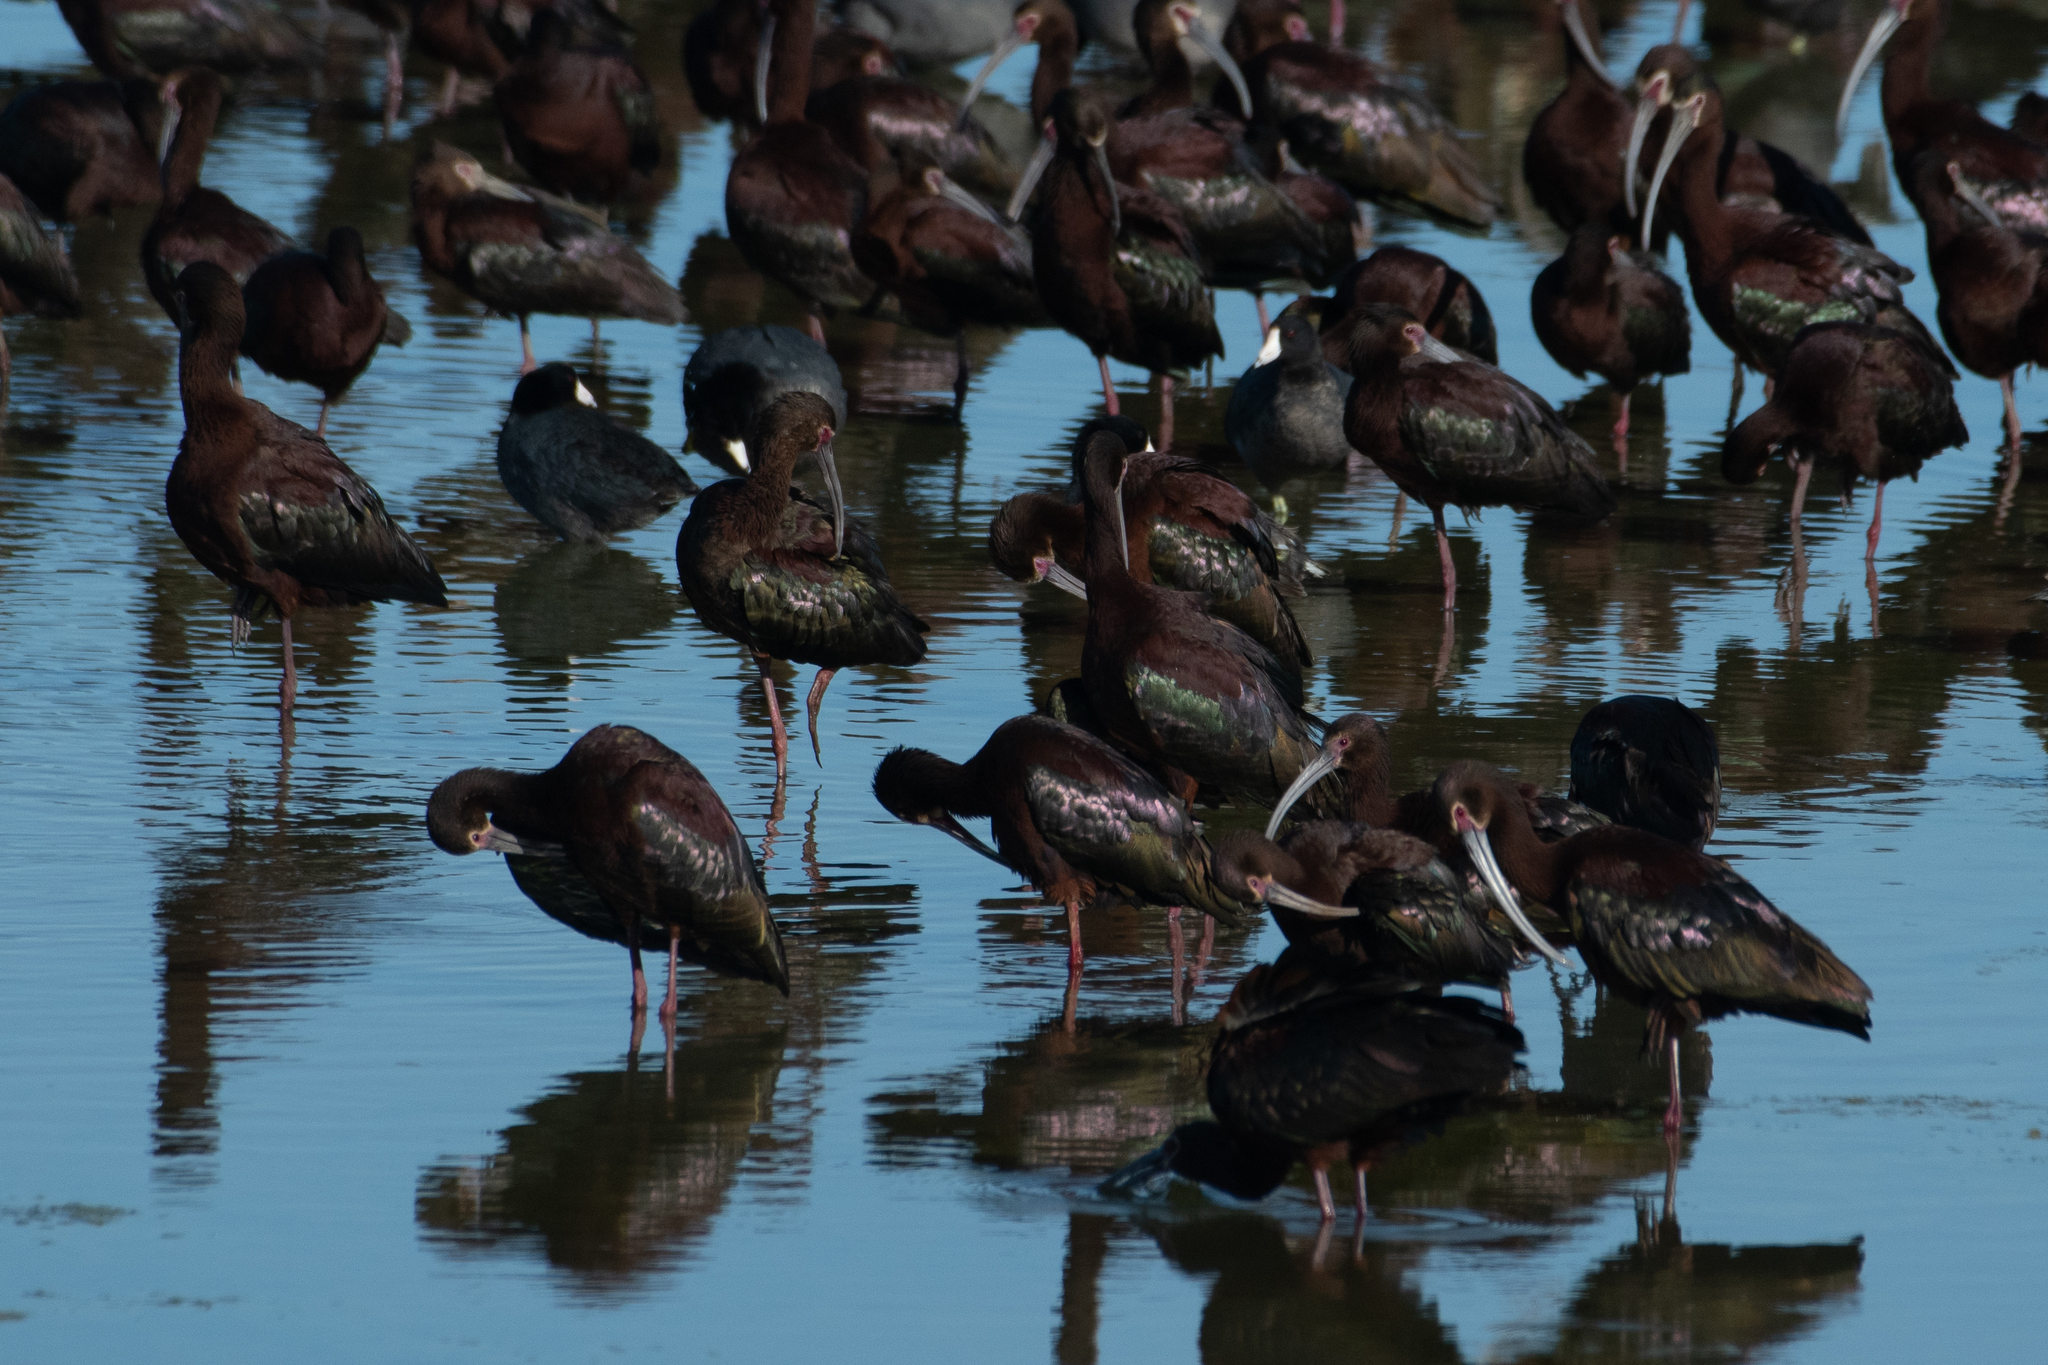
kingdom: Animalia
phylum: Chordata
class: Aves
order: Pelecaniformes
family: Threskiornithidae
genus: Plegadis
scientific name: Plegadis chihi
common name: White-faced ibis
